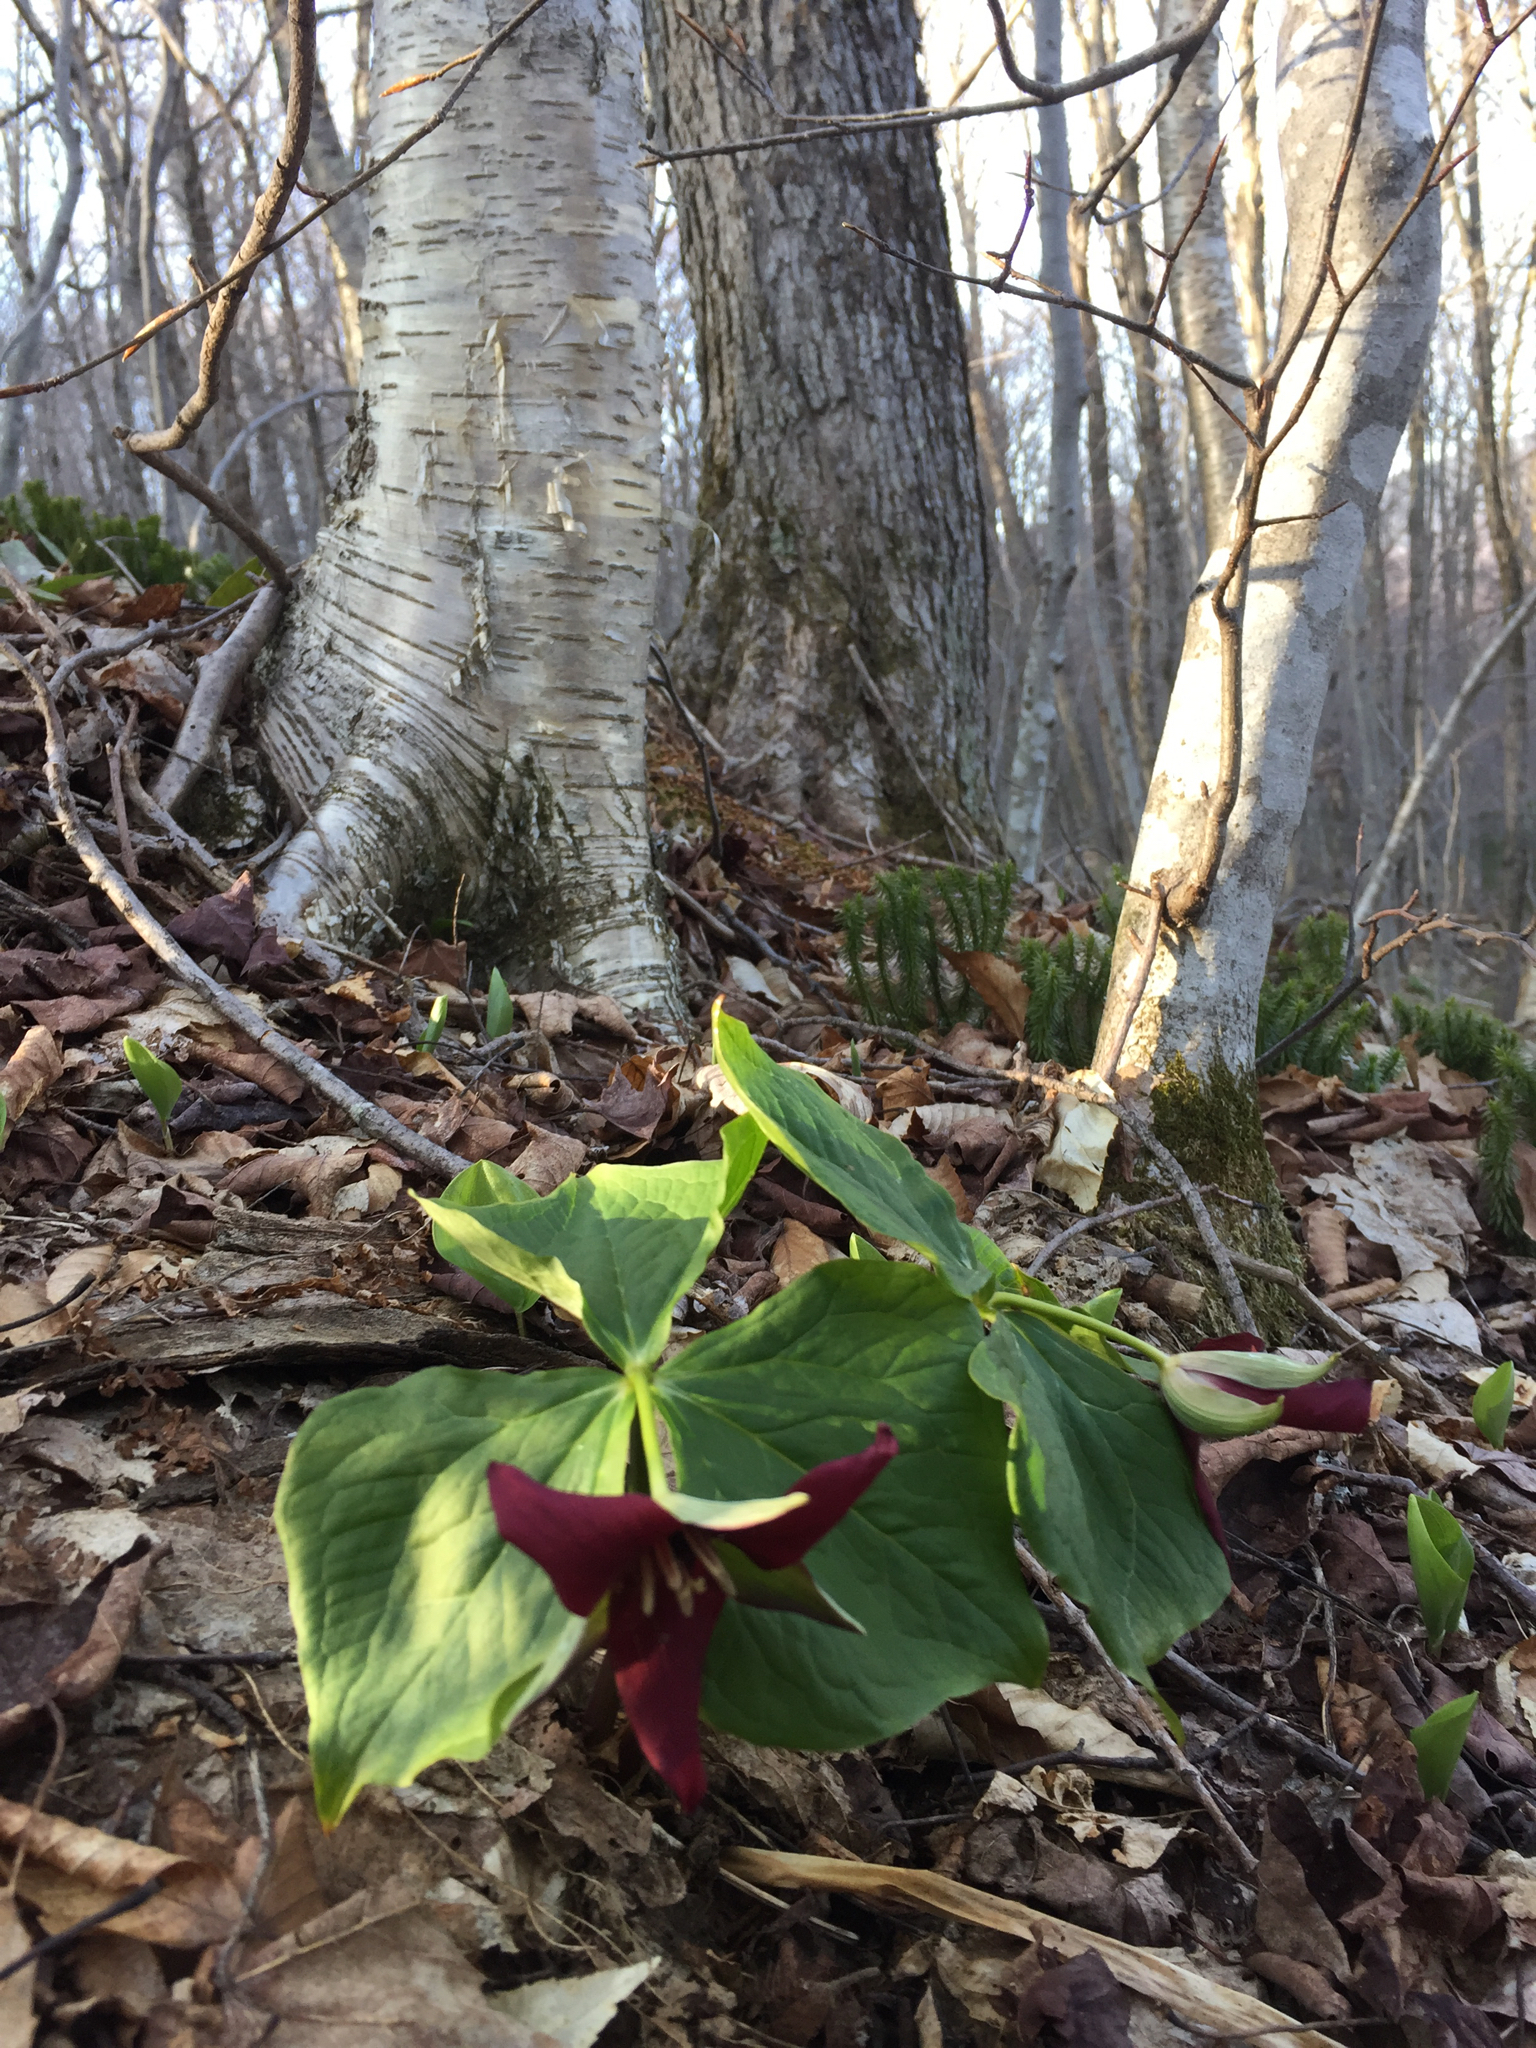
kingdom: Plantae
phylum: Tracheophyta
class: Liliopsida
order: Liliales
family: Melanthiaceae
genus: Trillium
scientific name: Trillium erectum
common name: Purple trillium
